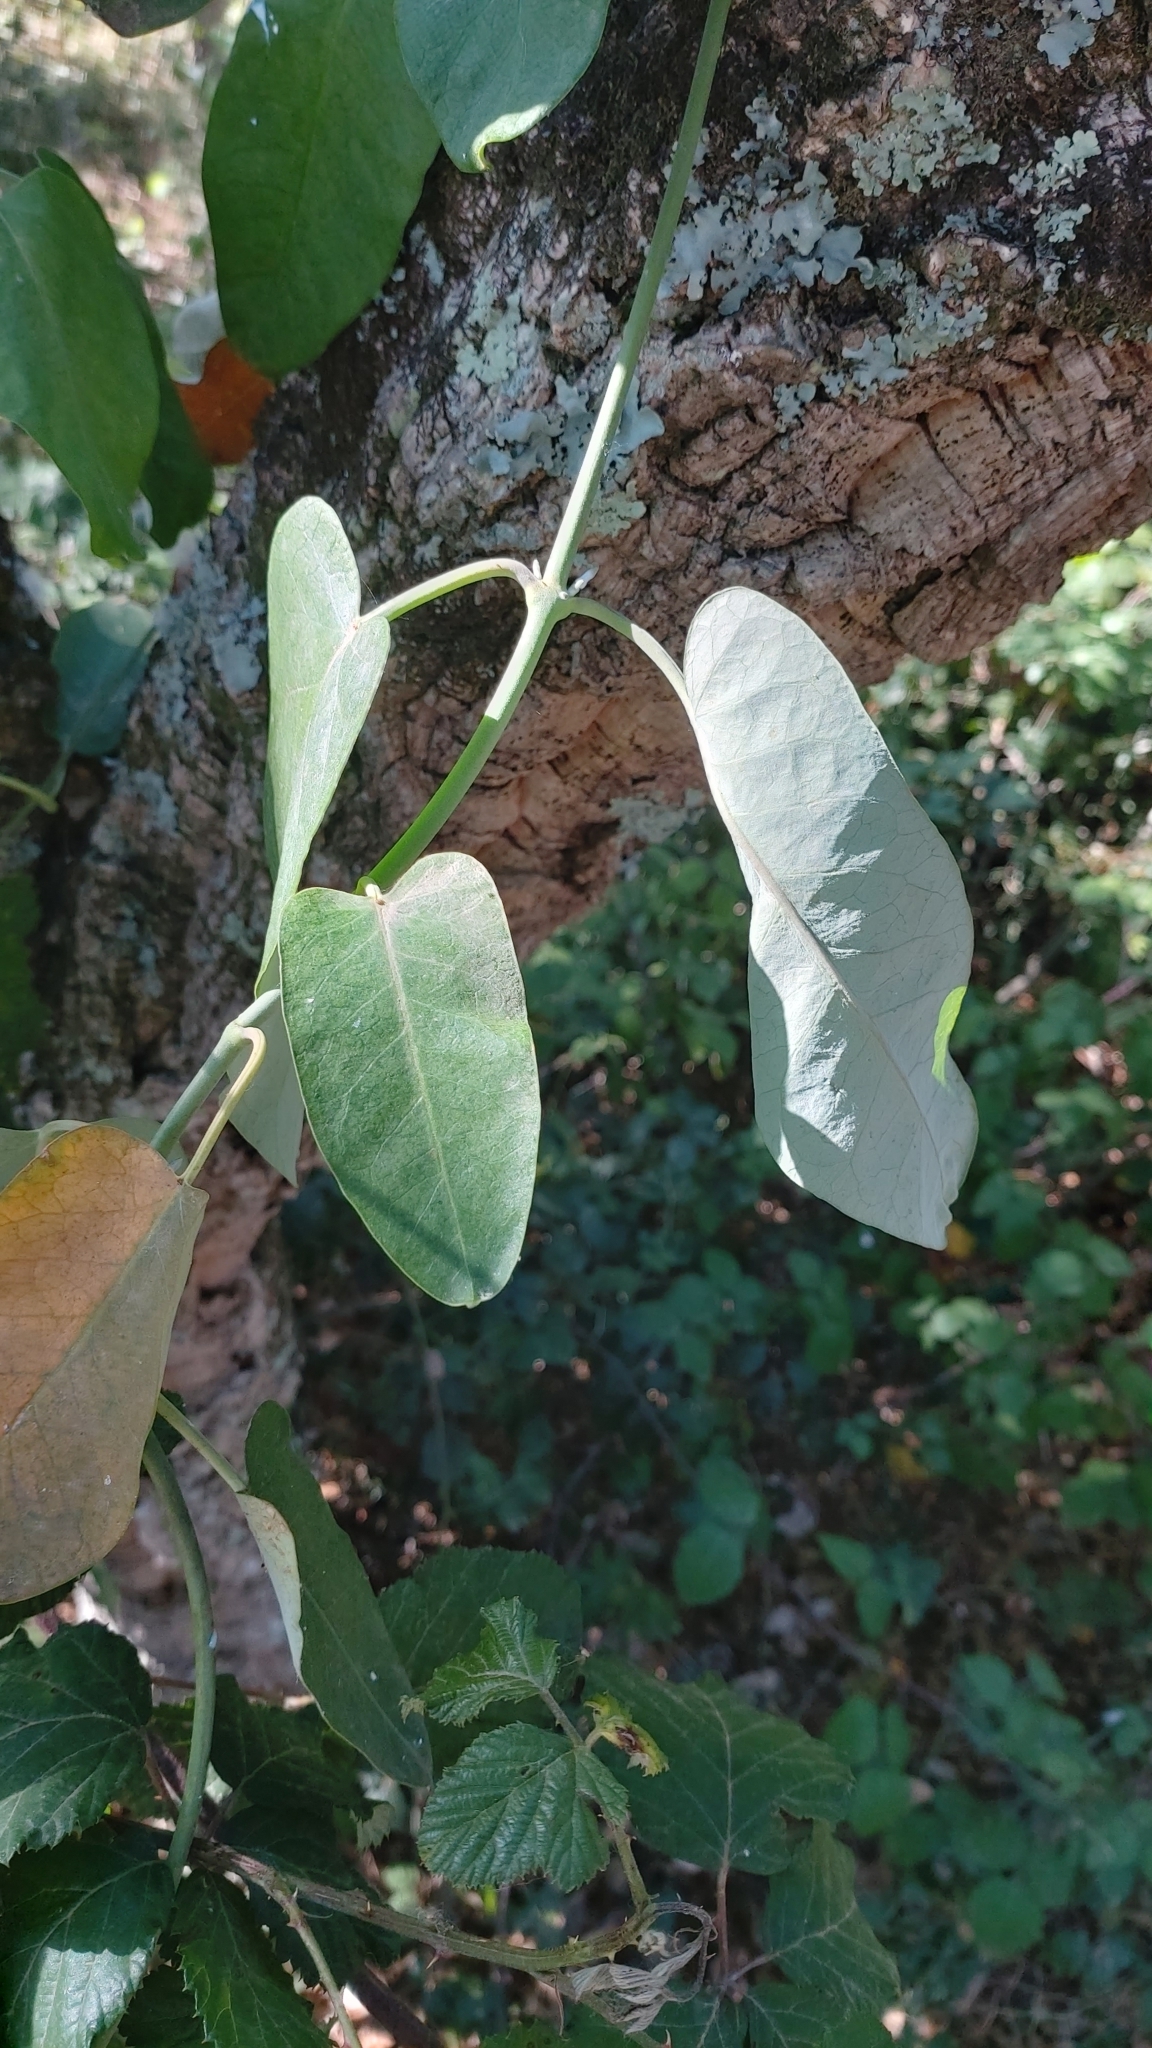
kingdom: Plantae
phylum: Tracheophyta
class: Magnoliopsida
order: Gentianales
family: Apocynaceae
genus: Araujia
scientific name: Araujia sericifera
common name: White bladderflower
